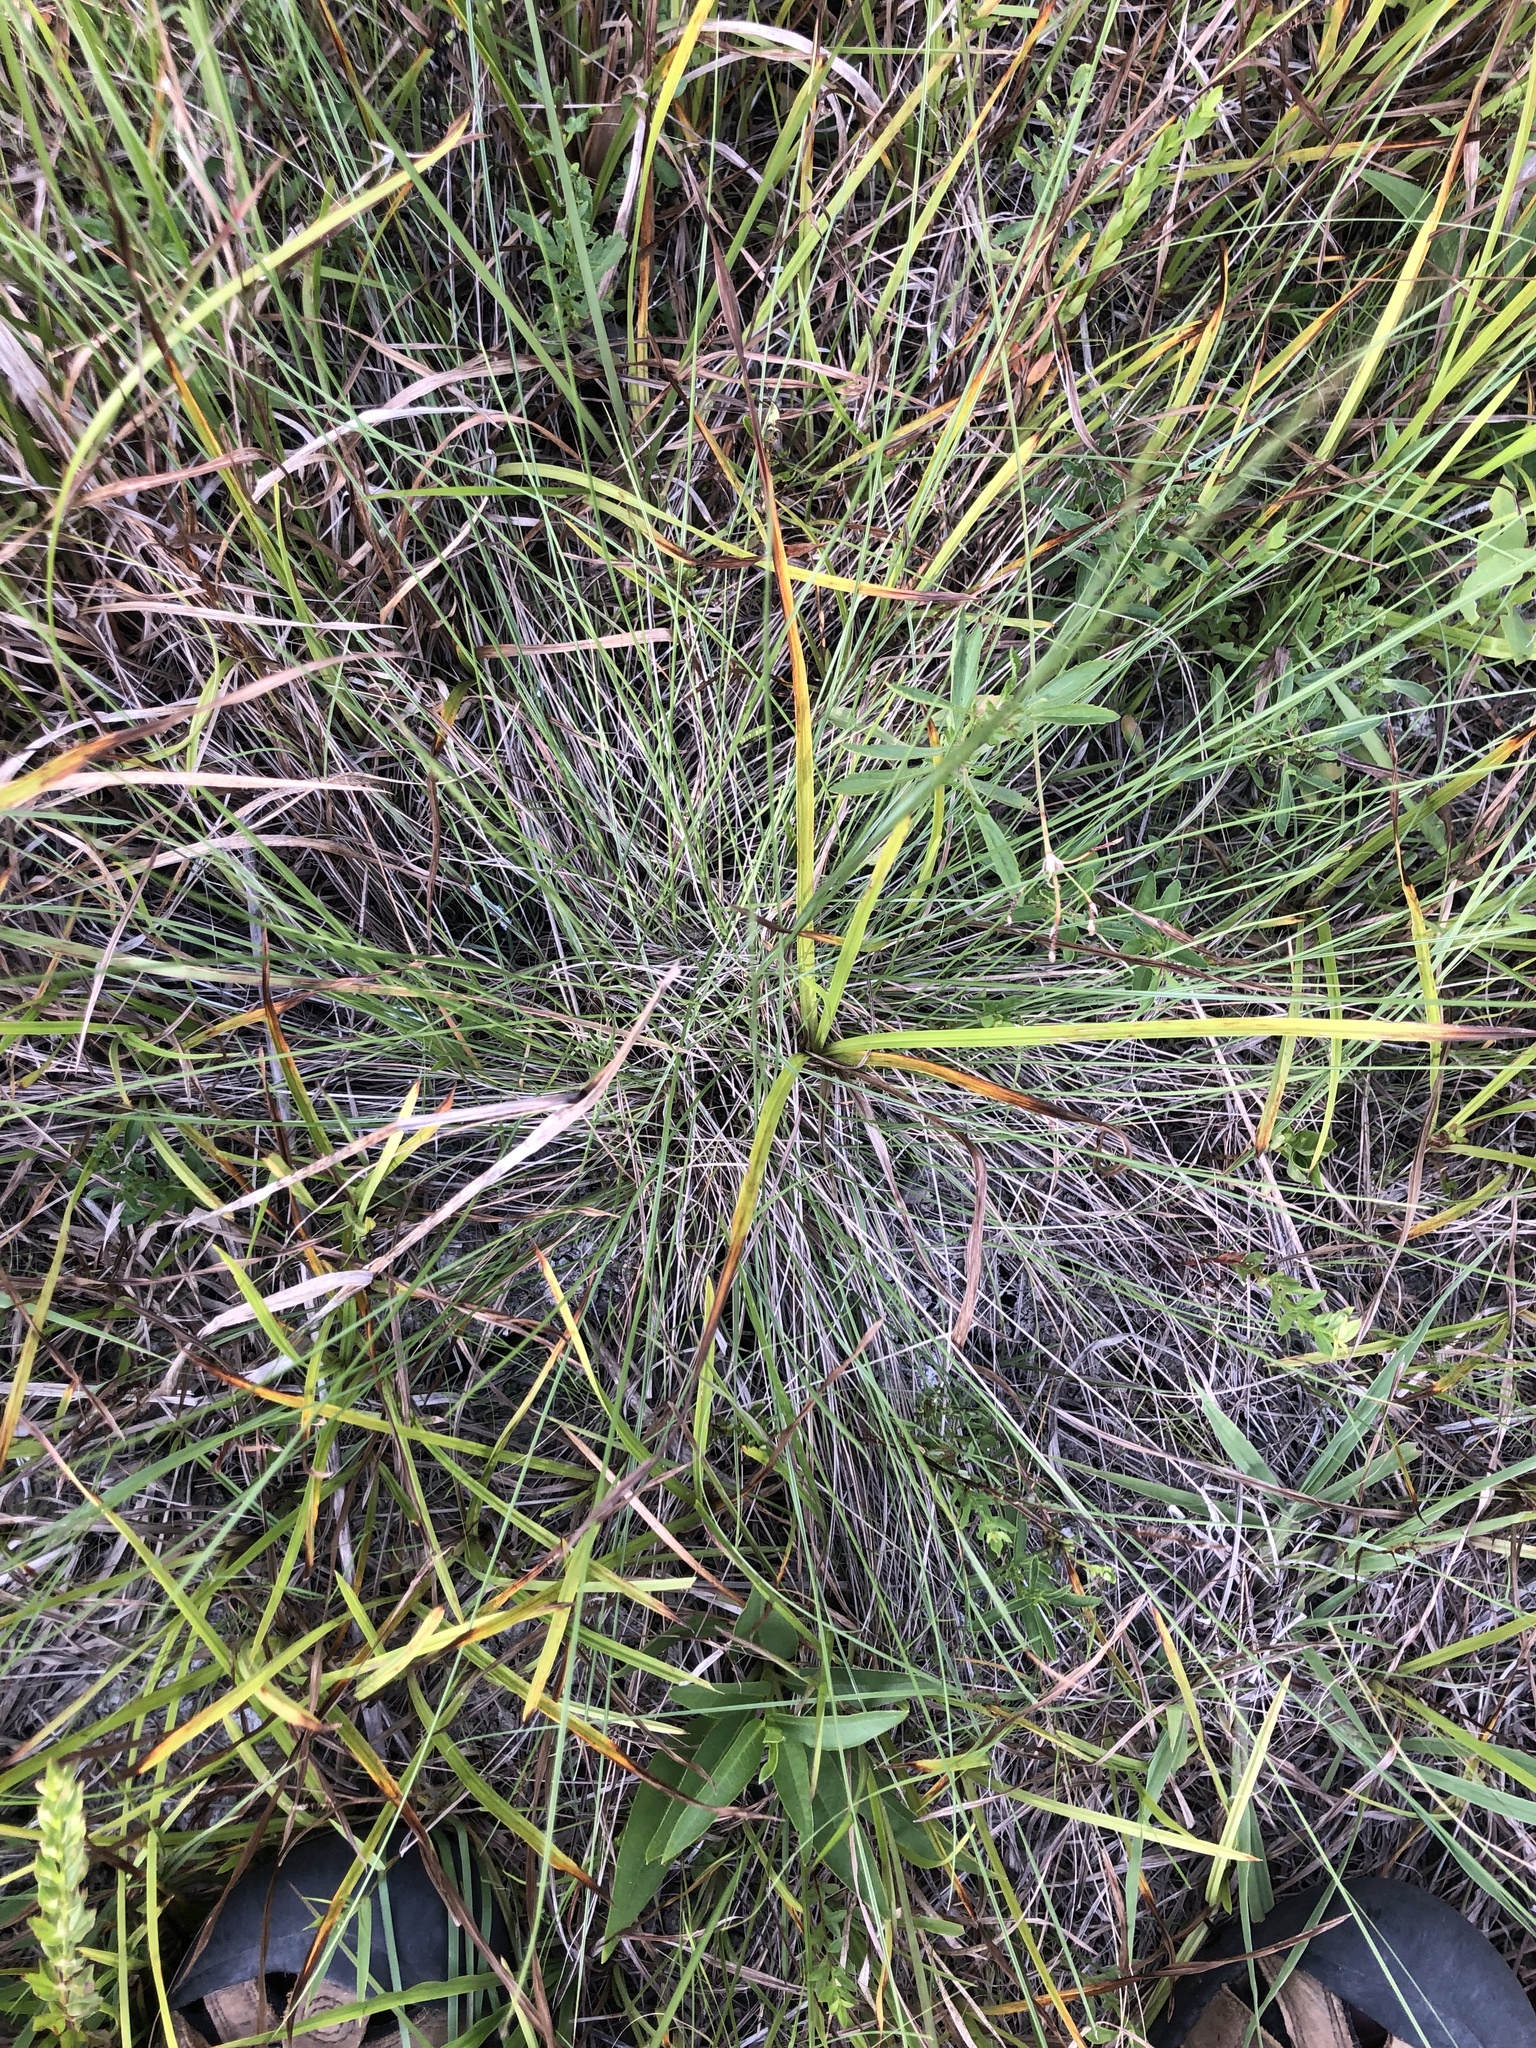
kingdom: Plantae
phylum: Tracheophyta
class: Liliopsida
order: Poales
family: Poaceae
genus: Sporobolus
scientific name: Sporobolus junceus
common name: Lizard grass
